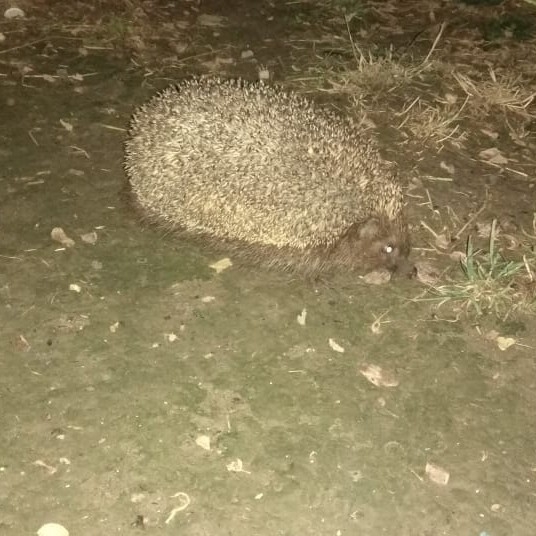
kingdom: Animalia
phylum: Chordata
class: Mammalia
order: Erinaceomorpha
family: Erinaceidae
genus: Erinaceus
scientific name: Erinaceus roumanicus
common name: Northern white-breasted hedgehog
